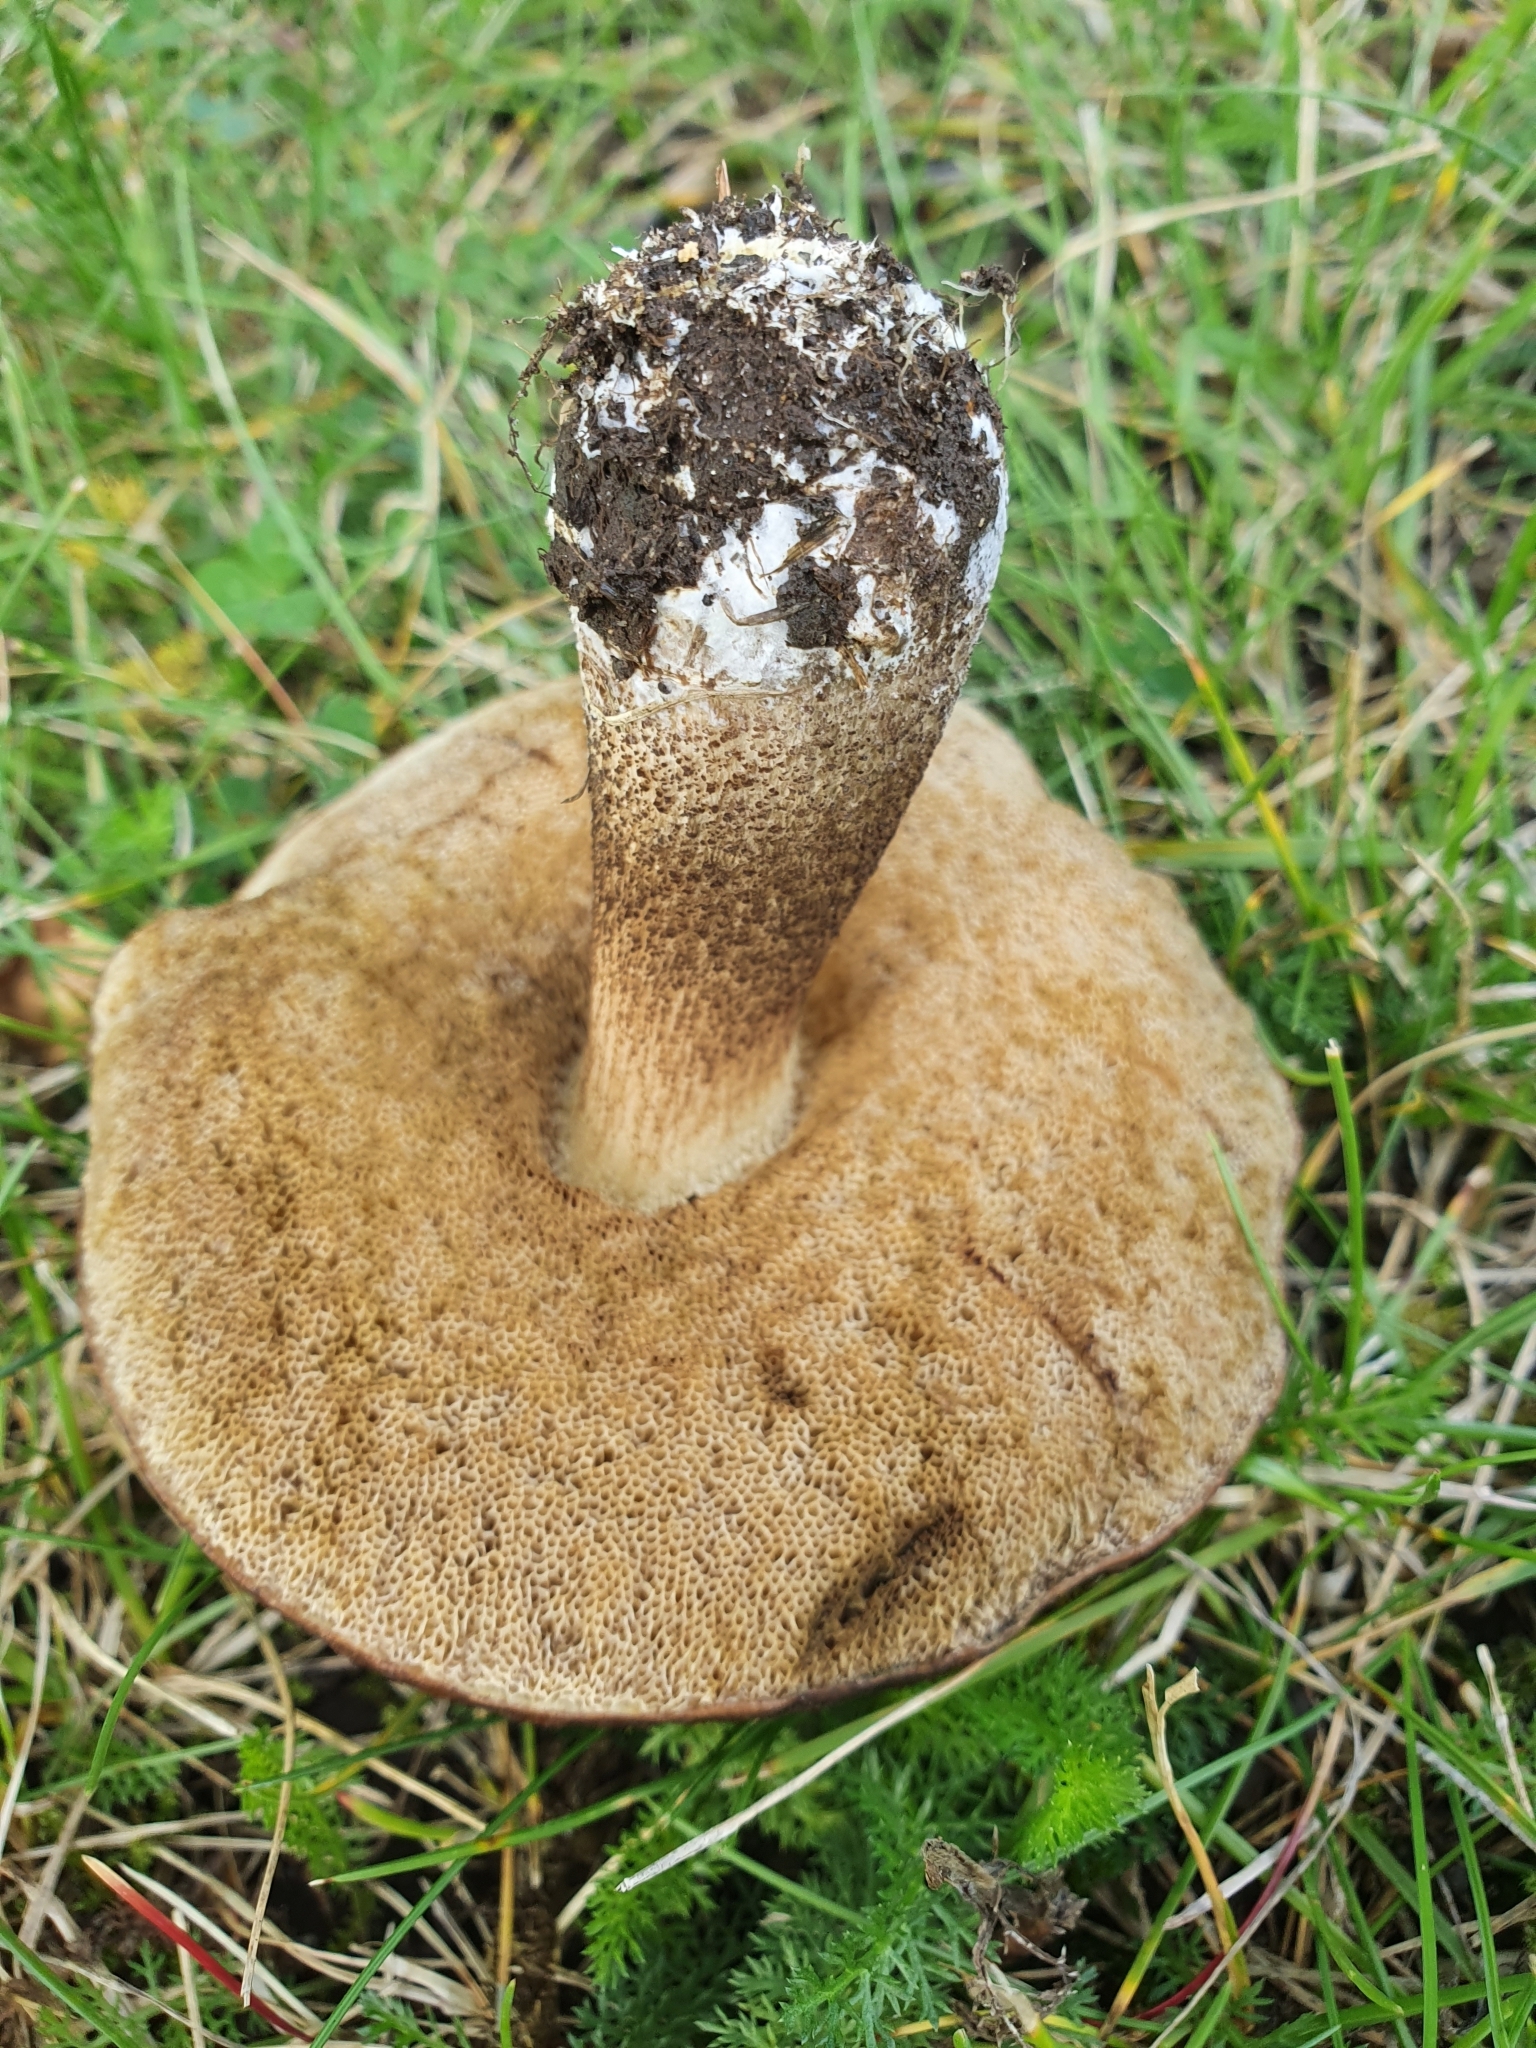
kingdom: Fungi
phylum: Basidiomycota
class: Agaricomycetes
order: Boletales
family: Boletaceae
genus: Leccinum
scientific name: Leccinum scabrum
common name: Blushing bolete
